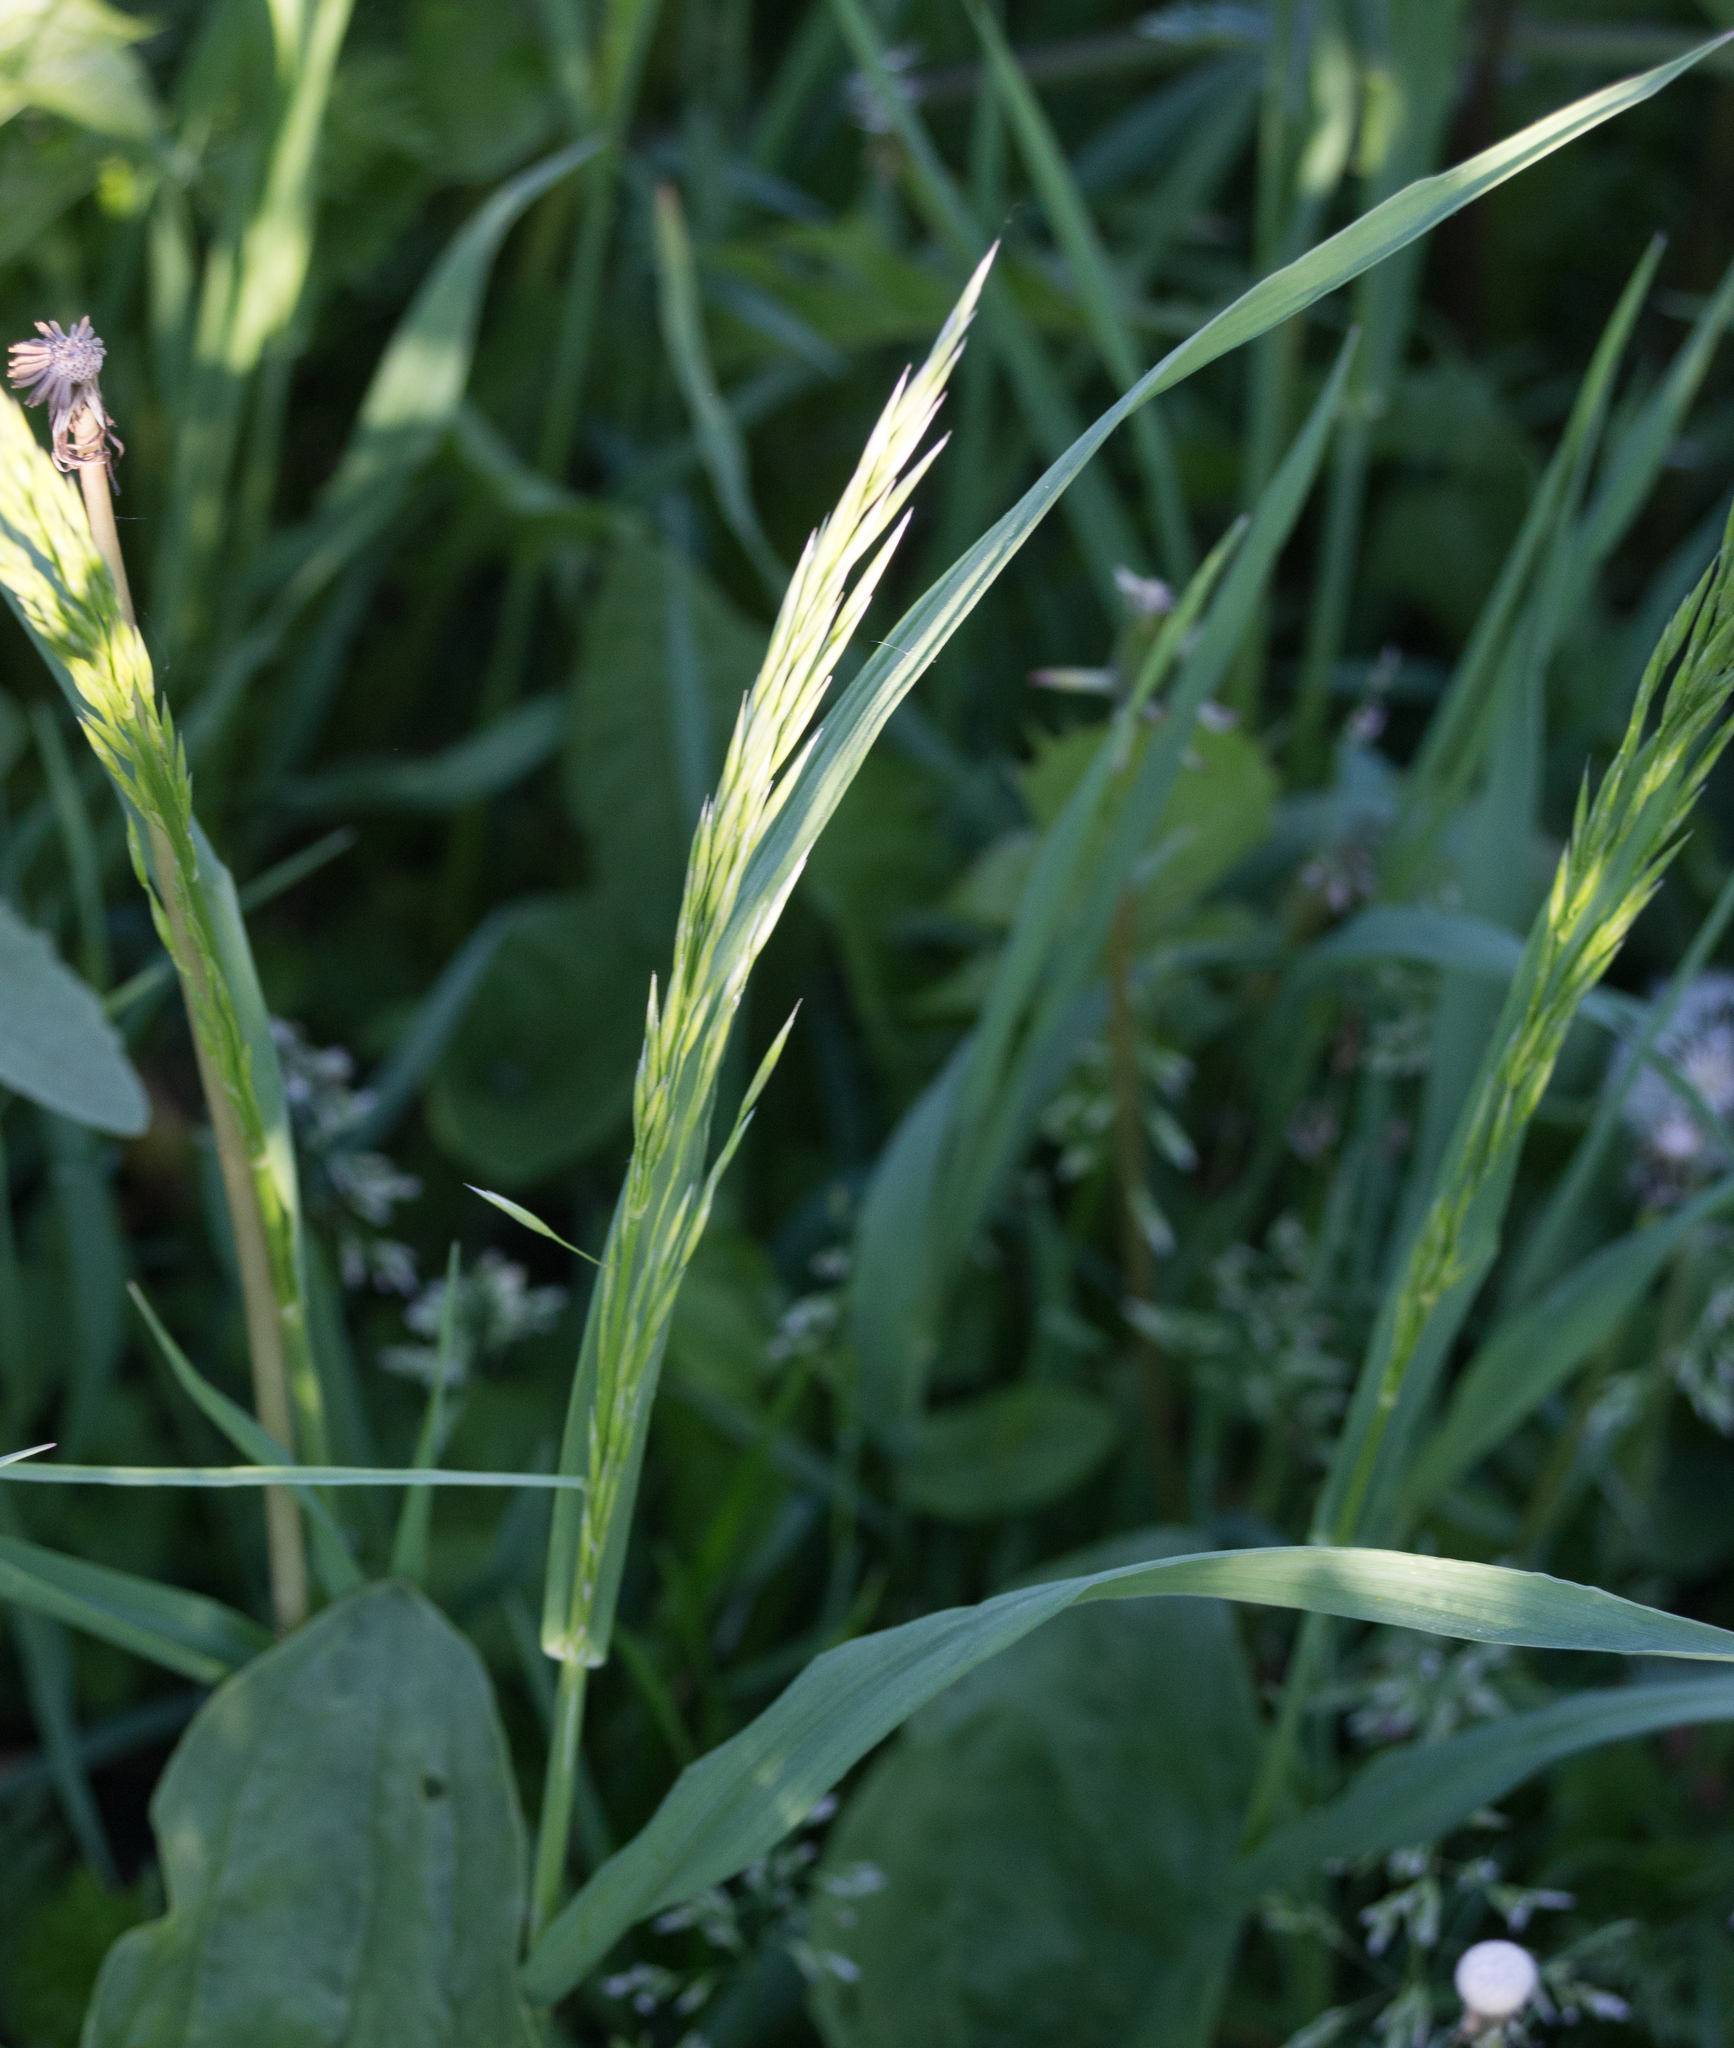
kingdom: Plantae
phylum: Tracheophyta
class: Liliopsida
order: Poales
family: Poaceae
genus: Bromus
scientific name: Bromus inermis
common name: Smooth brome
